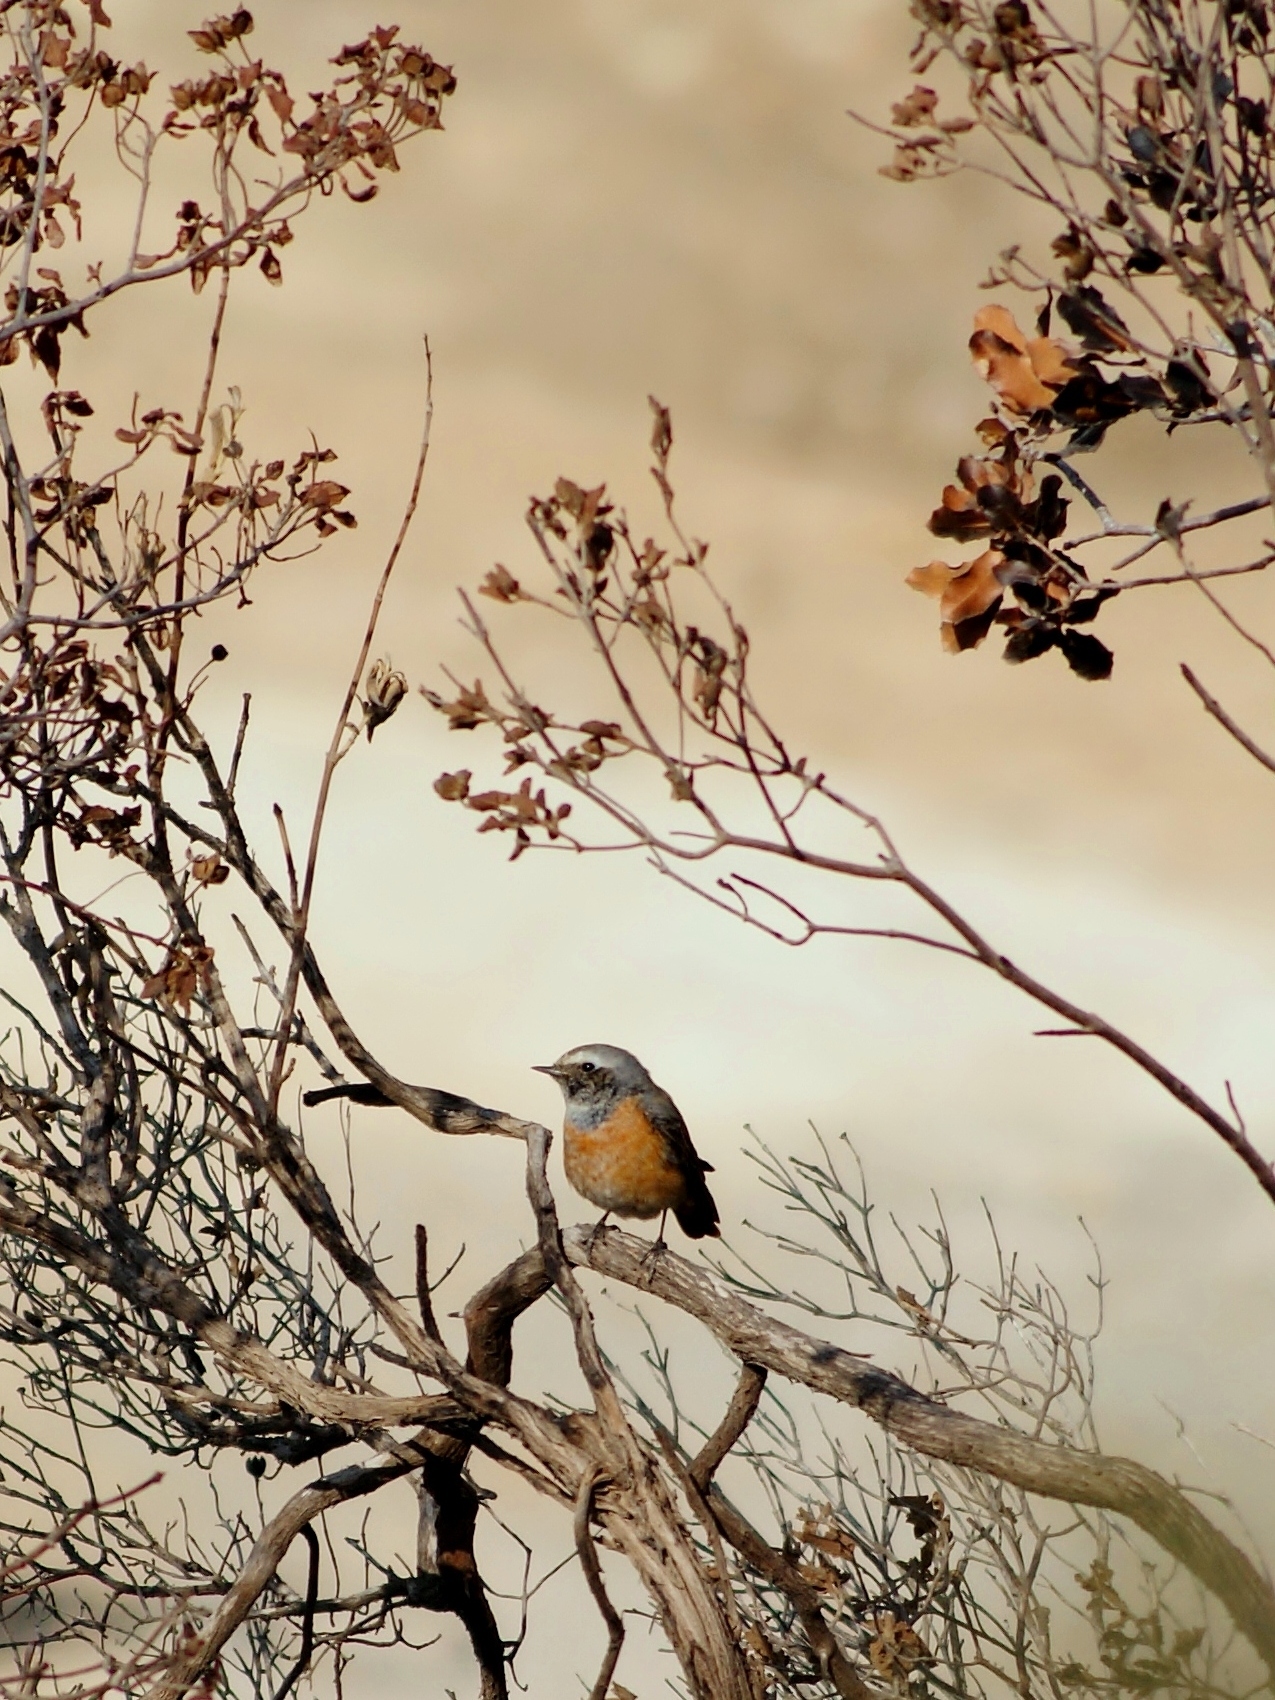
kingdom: Animalia
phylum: Chordata
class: Aves
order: Passeriformes
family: Muscicapidae
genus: Phoenicurus
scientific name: Phoenicurus phoenicurus
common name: Common redstart
